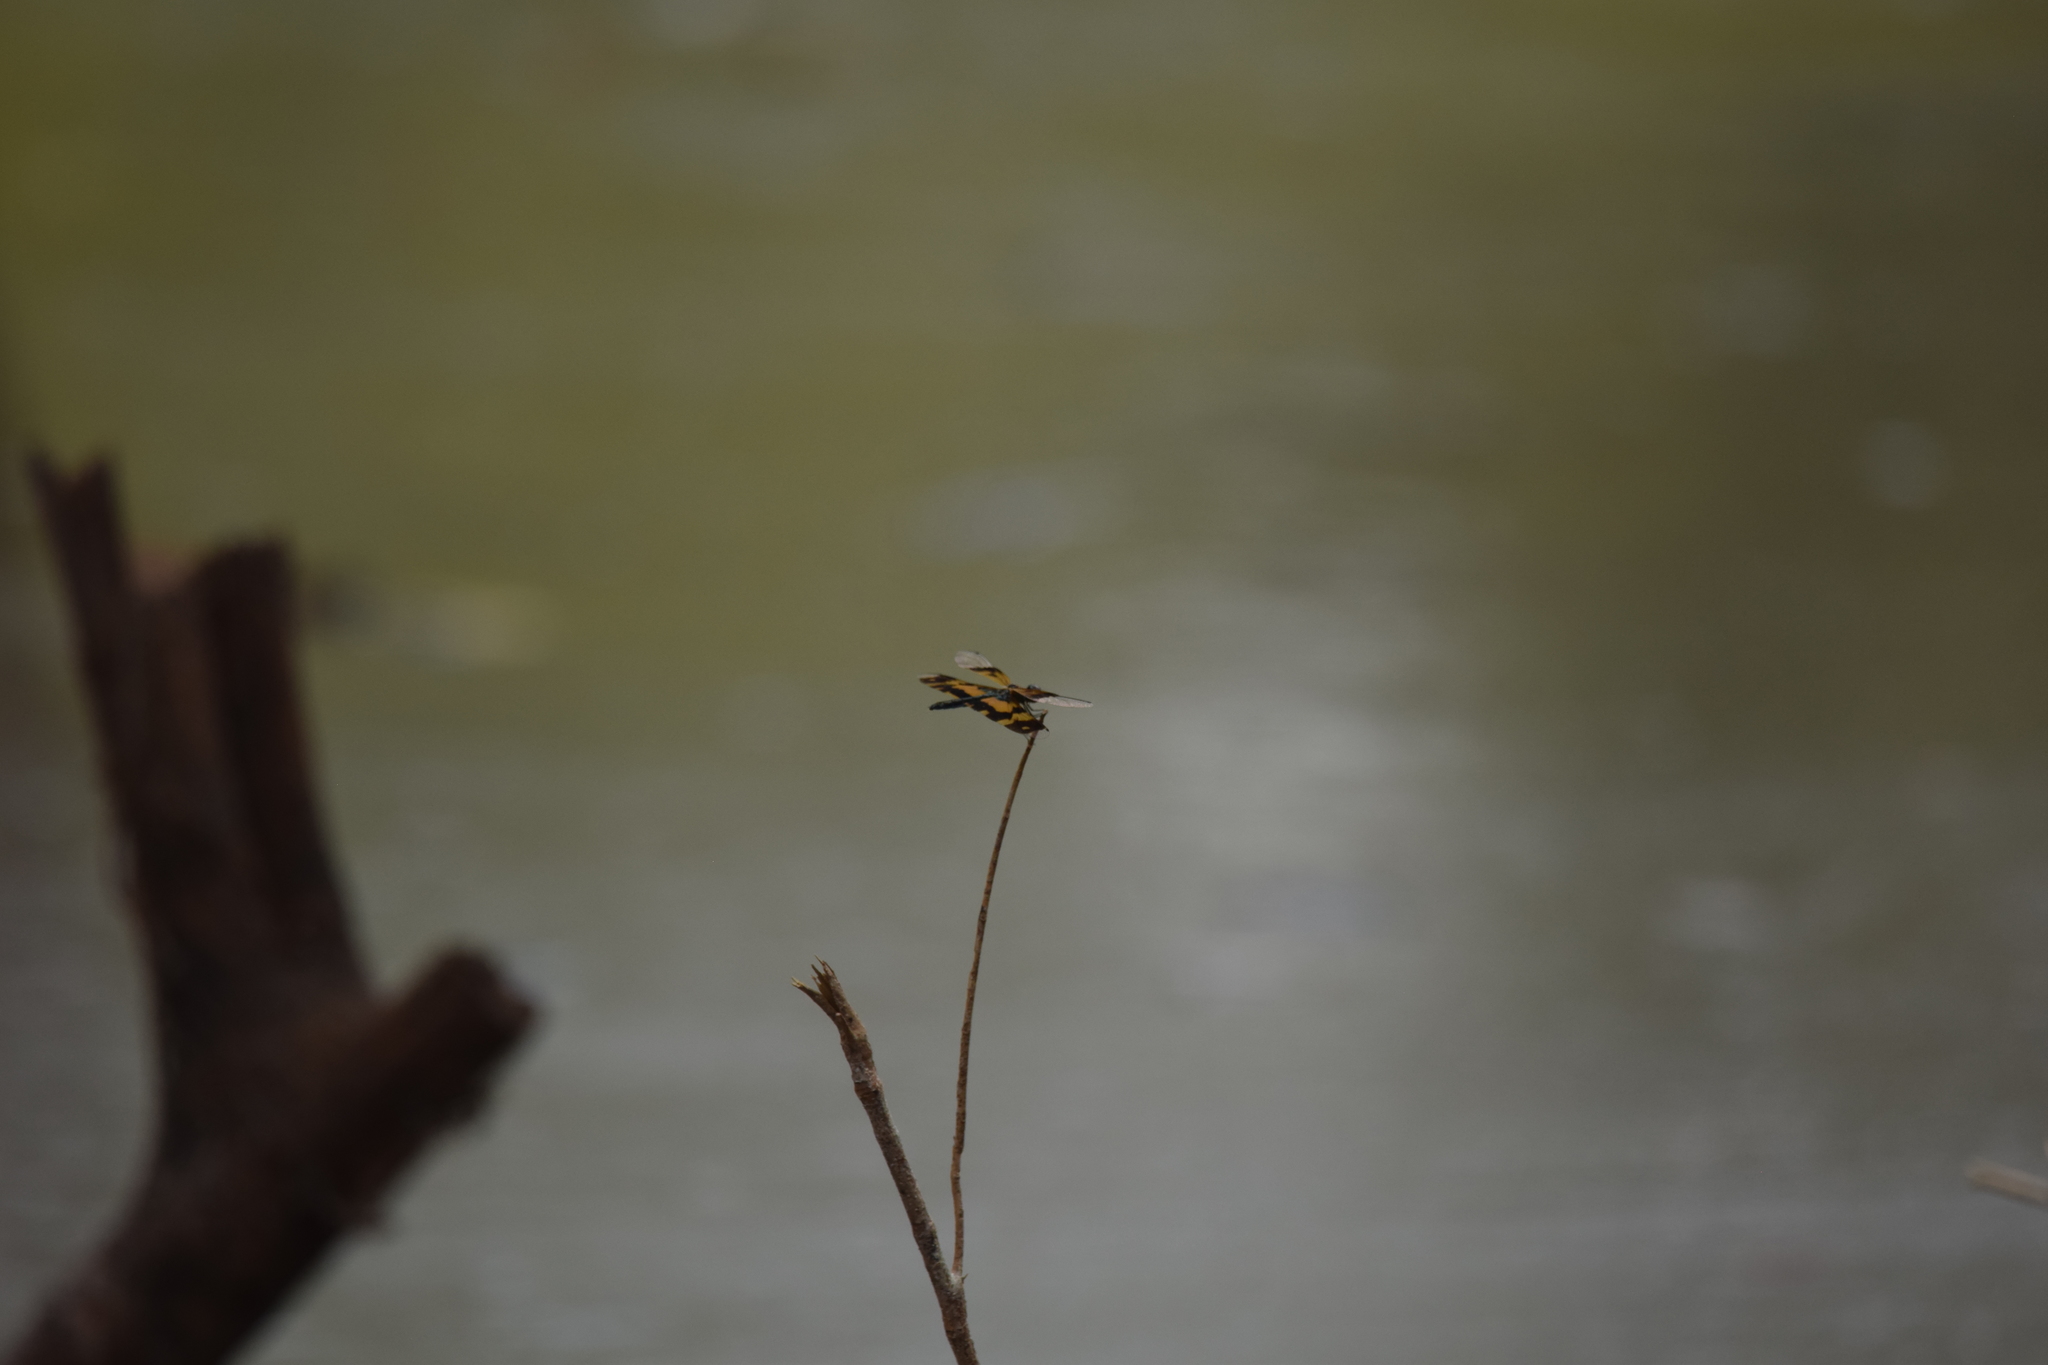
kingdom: Animalia
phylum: Arthropoda
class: Insecta
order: Odonata
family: Libellulidae
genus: Rhyothemis
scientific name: Rhyothemis variegata
